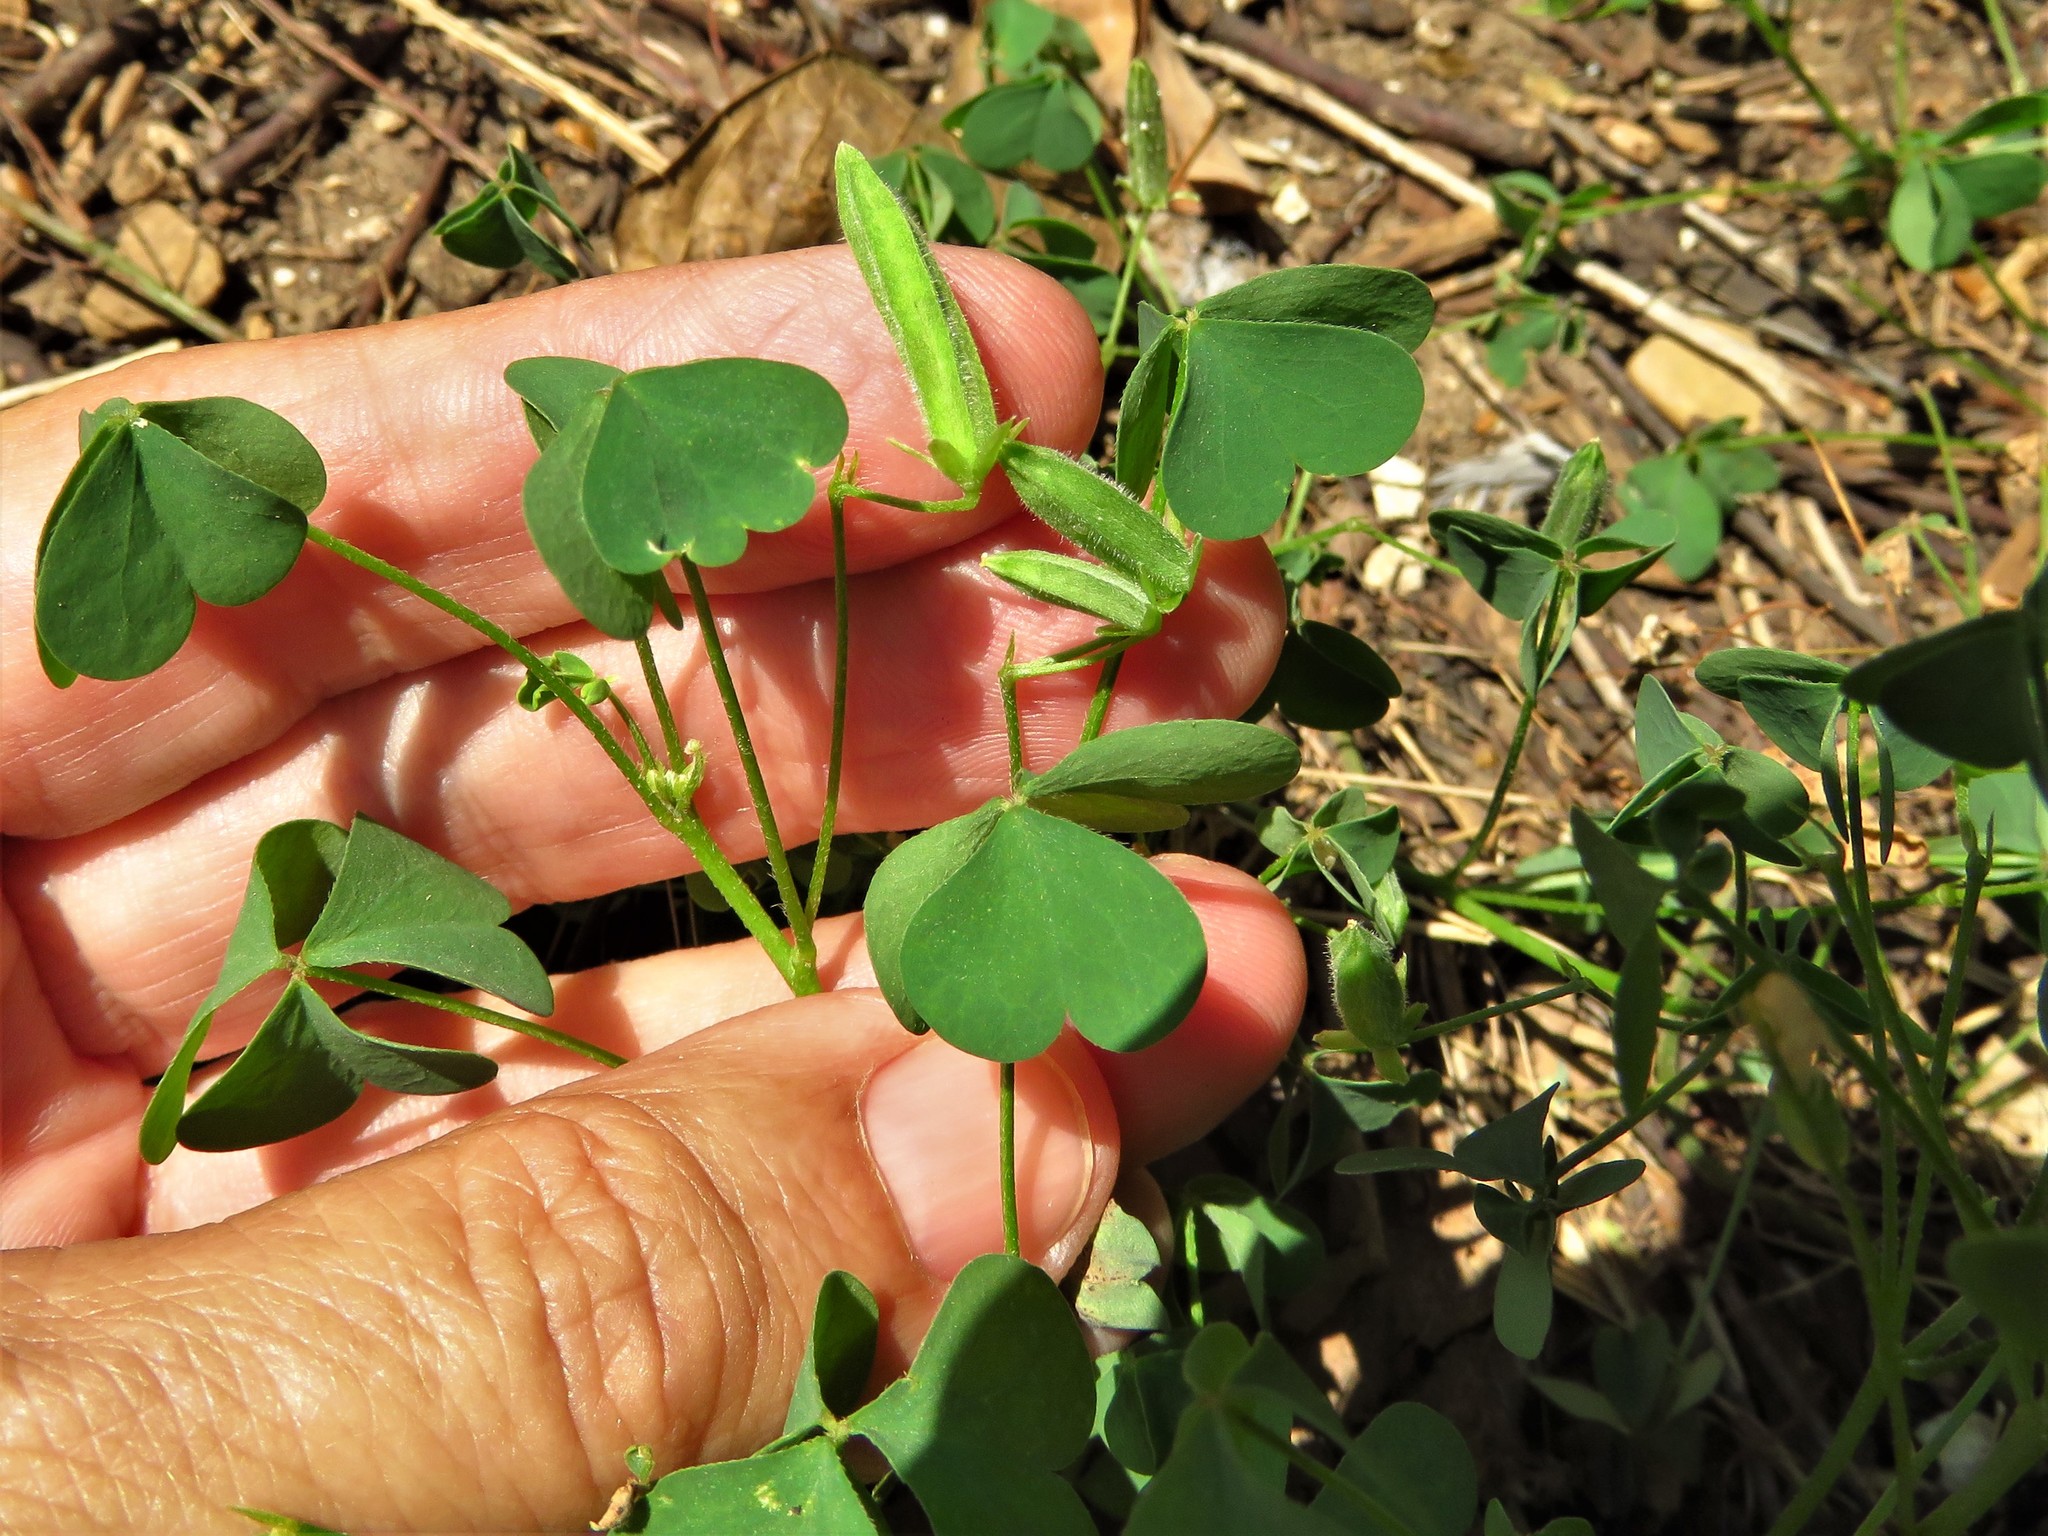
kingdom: Plantae
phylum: Tracheophyta
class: Magnoliopsida
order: Oxalidales
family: Oxalidaceae
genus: Oxalis
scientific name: Oxalis dillenii
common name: Sussex yellow-sorrel
